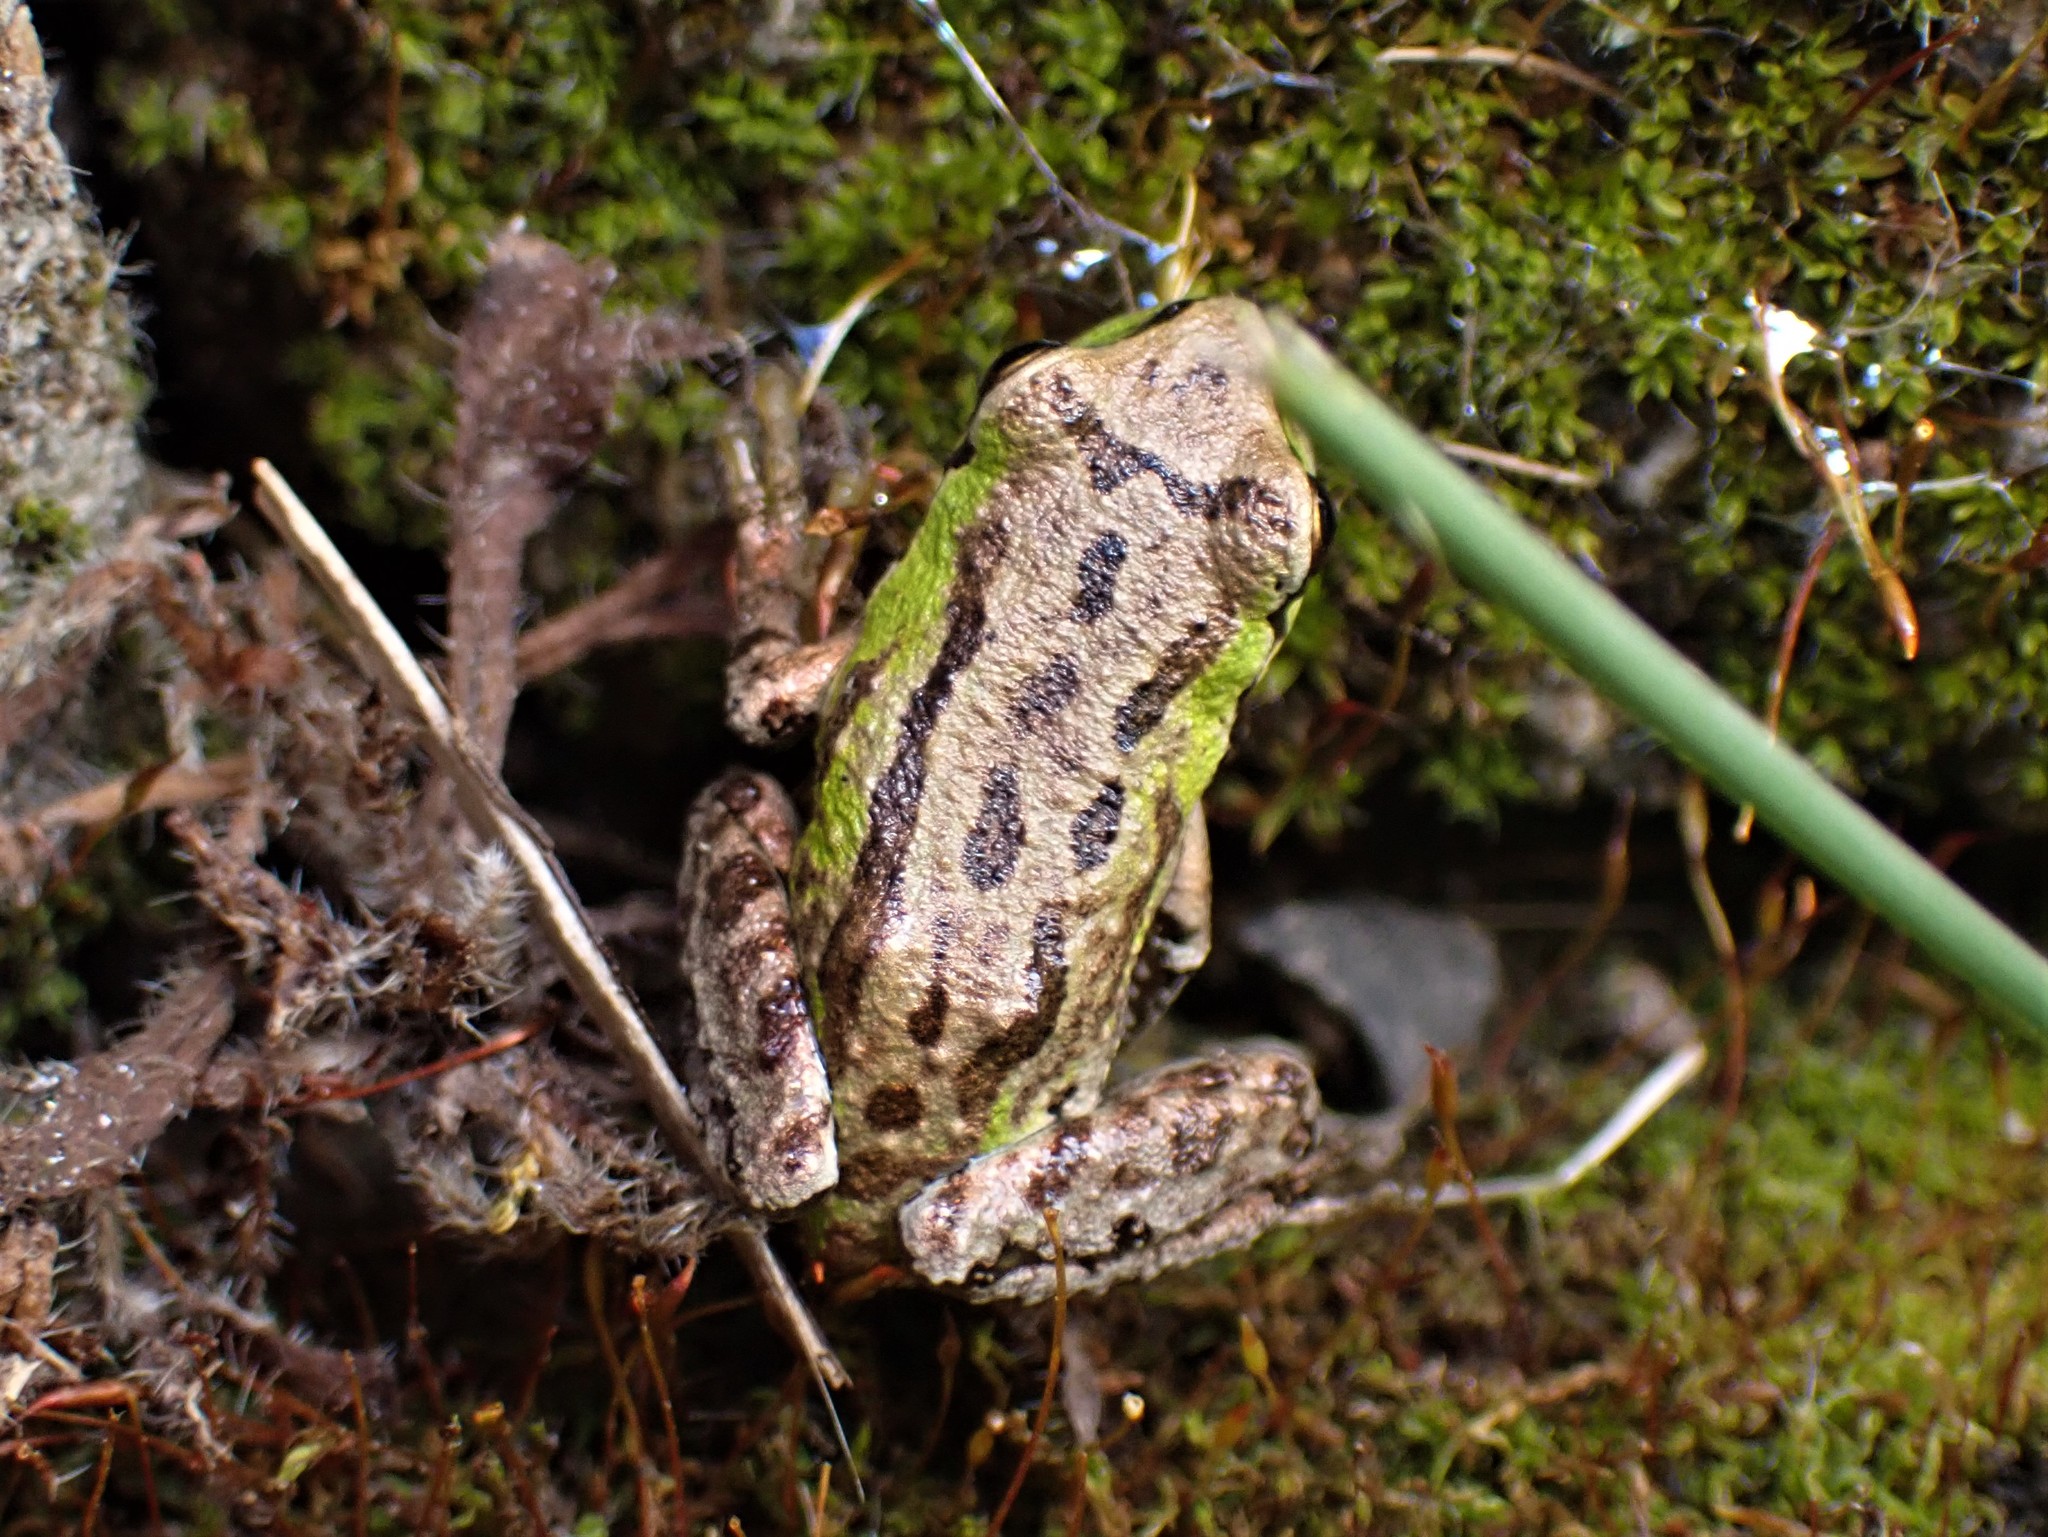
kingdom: Animalia
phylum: Chordata
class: Amphibia
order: Anura
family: Hylidae
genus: Pseudacris
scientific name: Pseudacris regilla
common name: Pacific chorus frog
